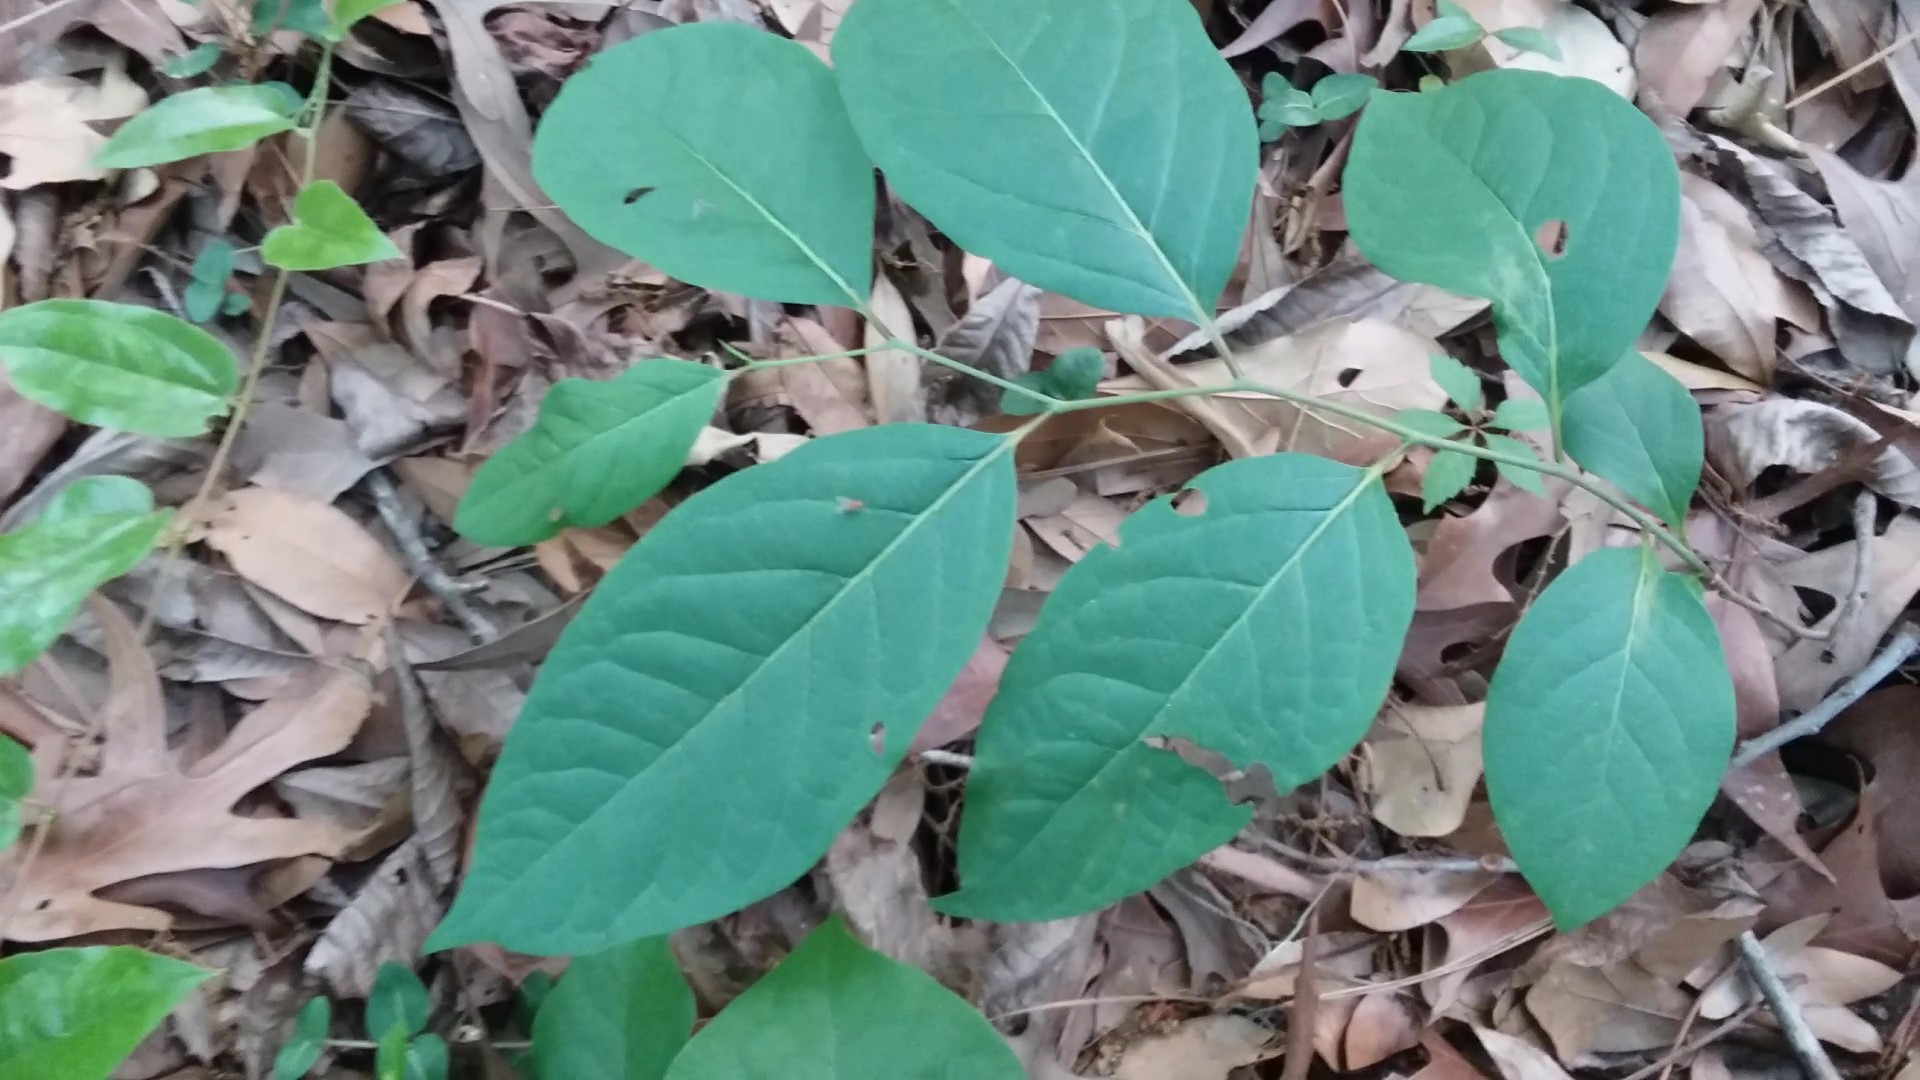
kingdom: Plantae
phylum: Tracheophyta
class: Magnoliopsida
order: Ericales
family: Ebenaceae
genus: Diospyros
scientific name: Diospyros virginiana
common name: Persimmon
